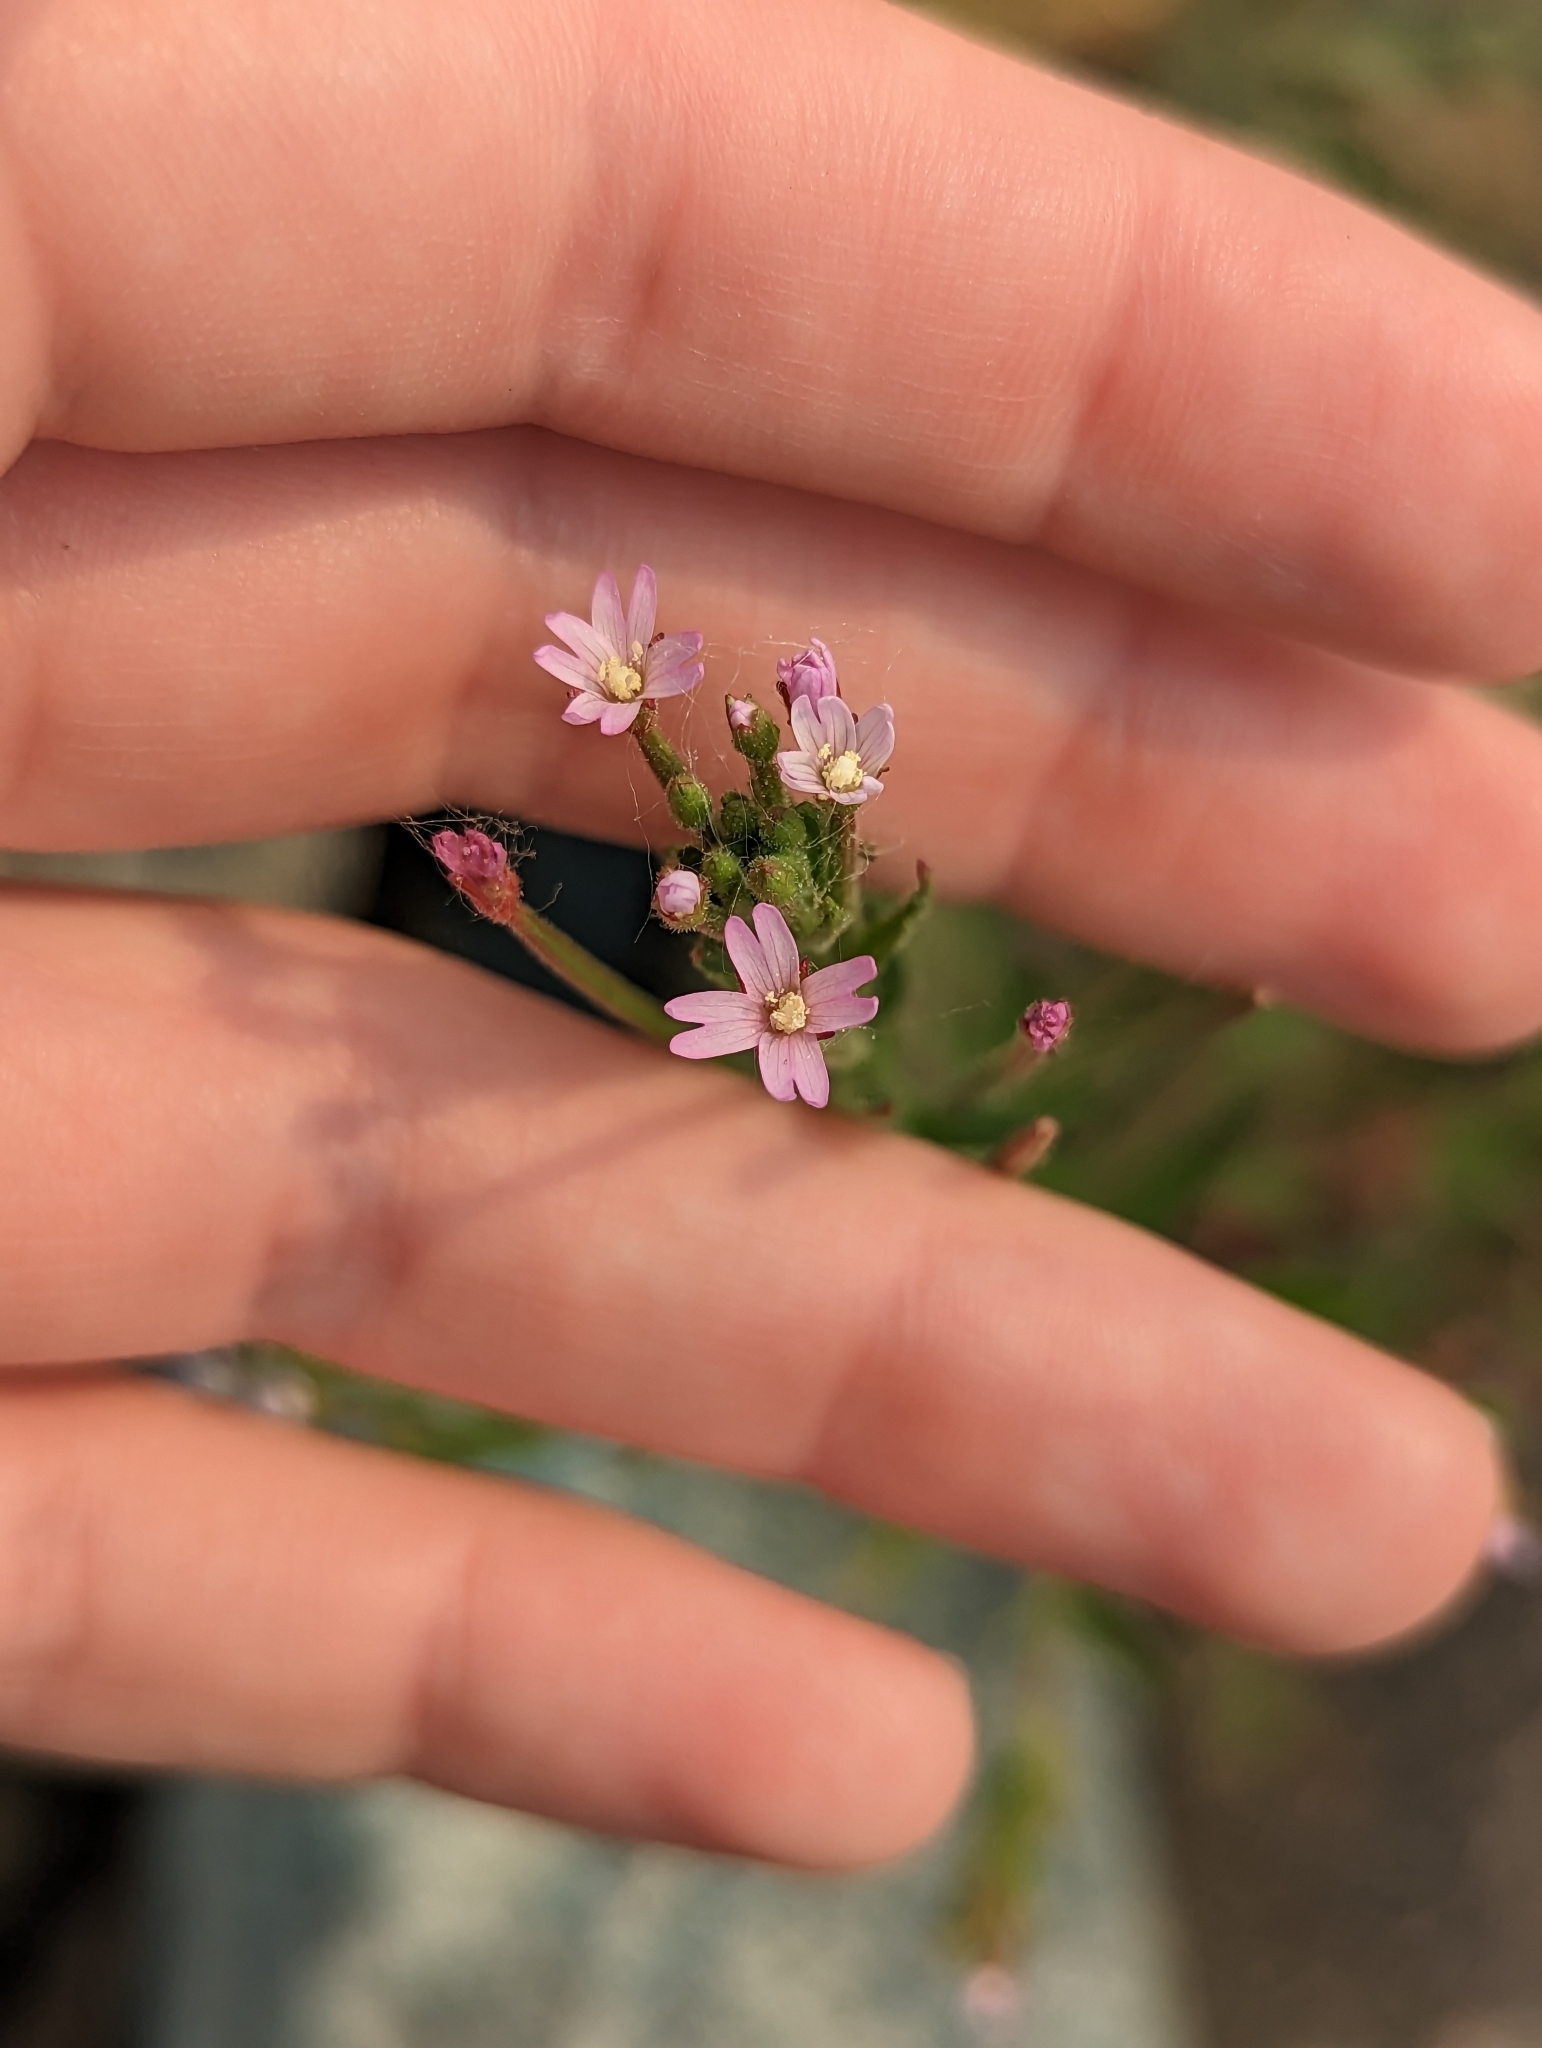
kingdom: Plantae
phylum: Tracheophyta
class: Magnoliopsida
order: Myrtales
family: Onagraceae
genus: Epilobium
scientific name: Epilobium ciliatum
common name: American willowherb
